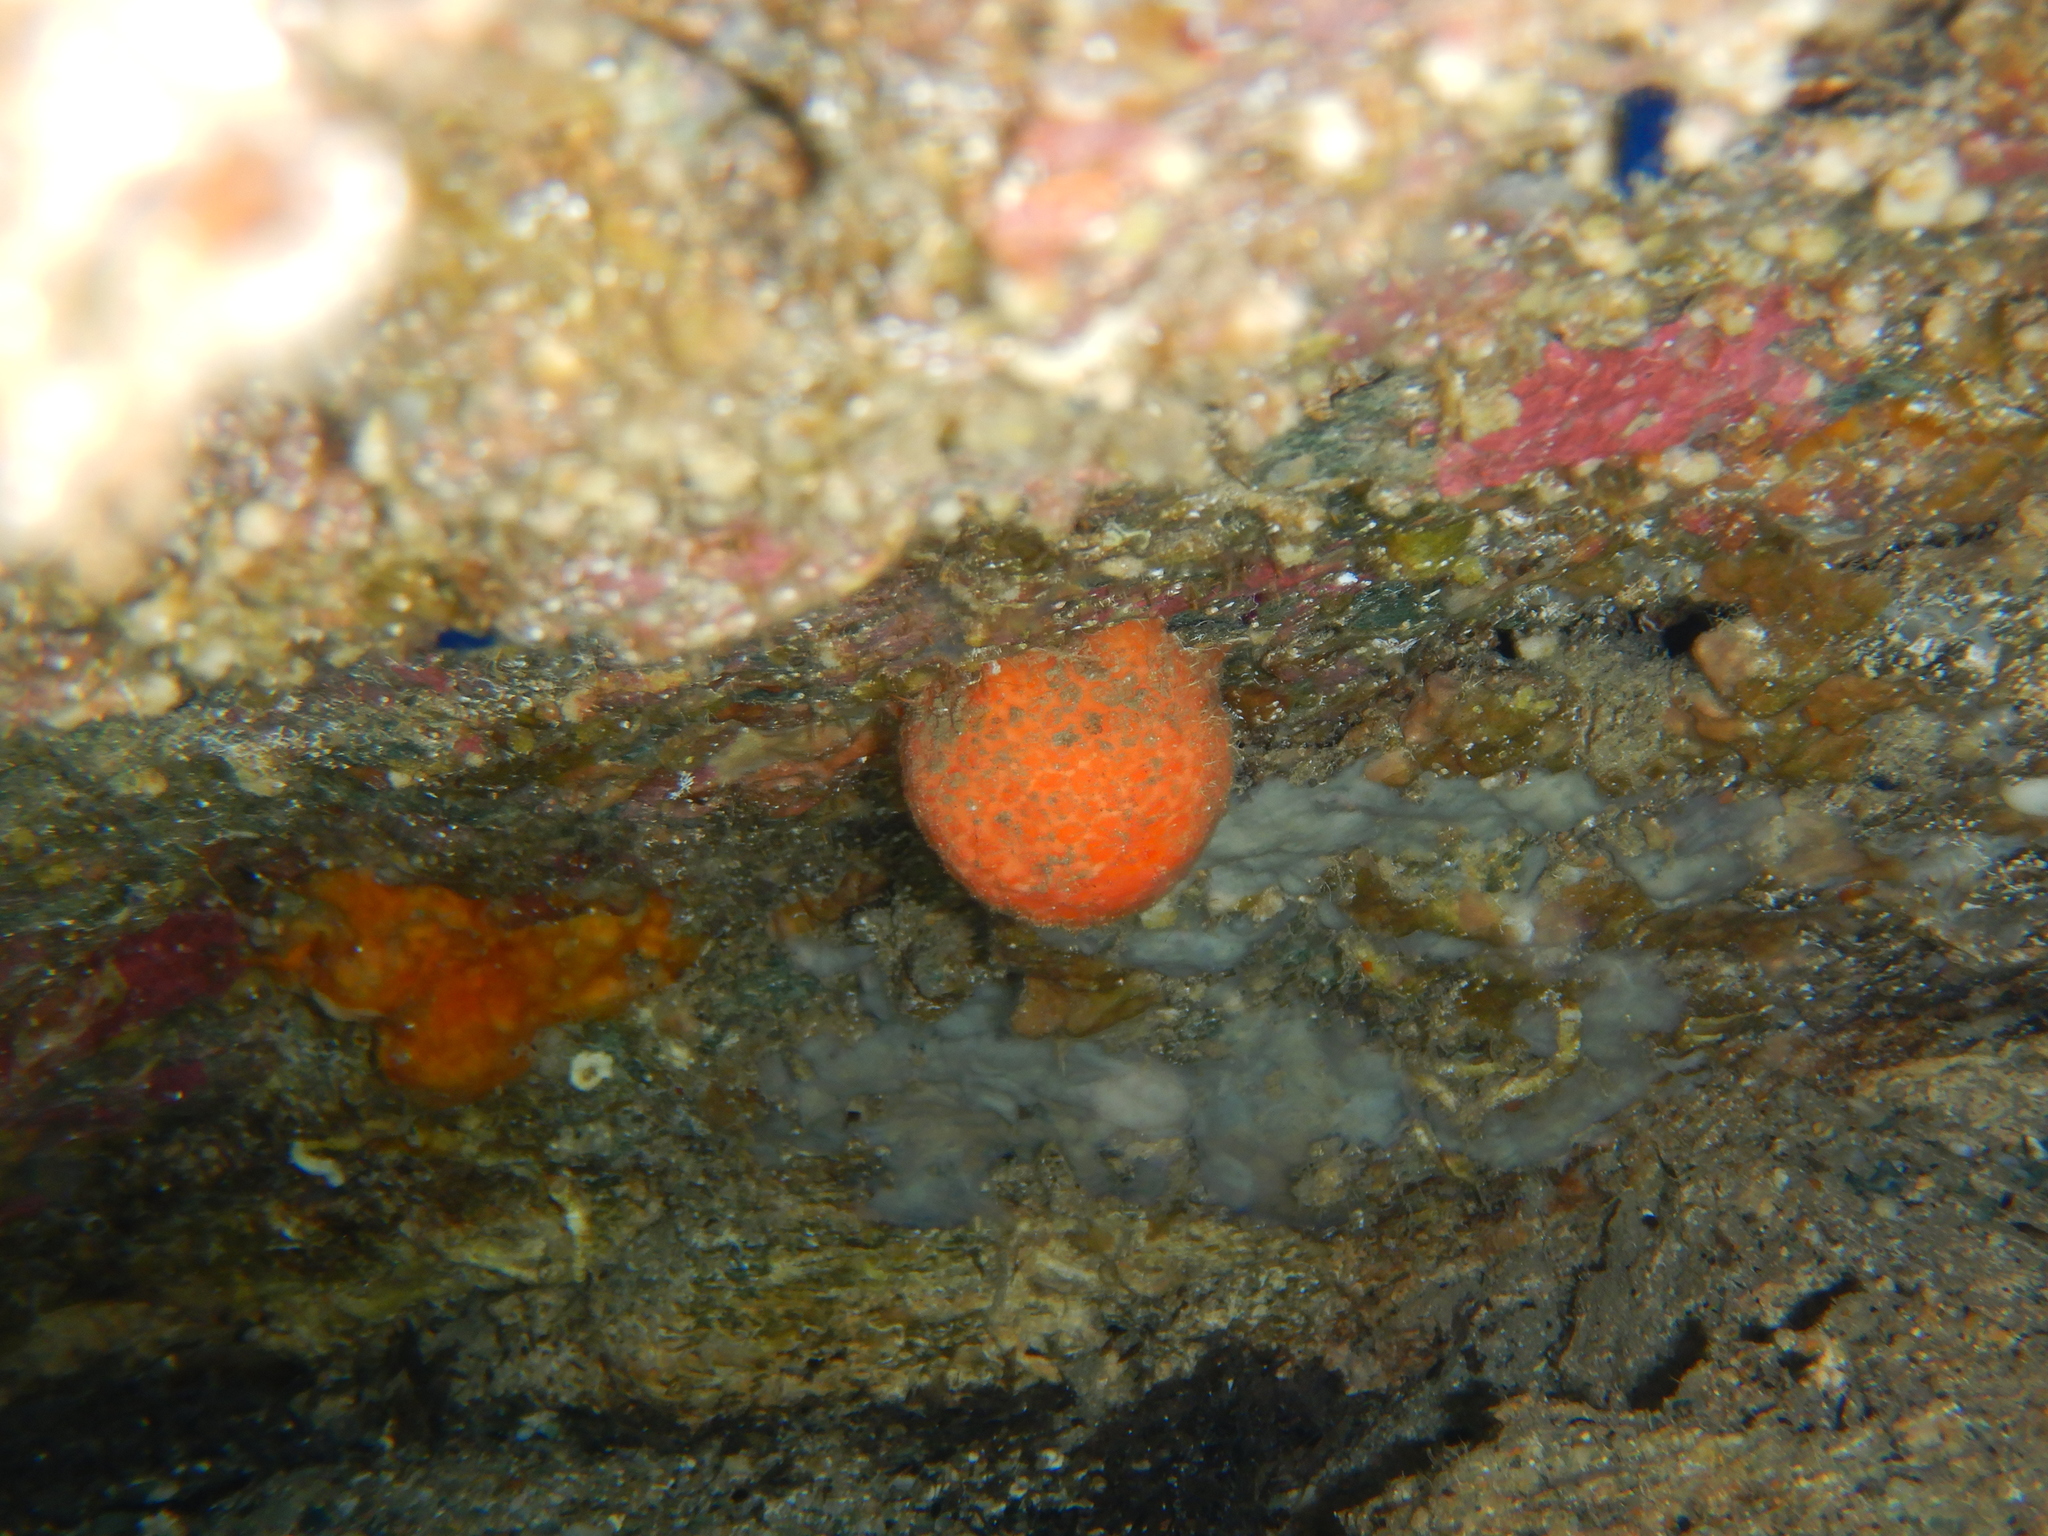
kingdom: Animalia
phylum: Porifera
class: Demospongiae
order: Tethyida
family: Tethyidae
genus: Tethya
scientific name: Tethya aurantium
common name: Golf ball sponge
